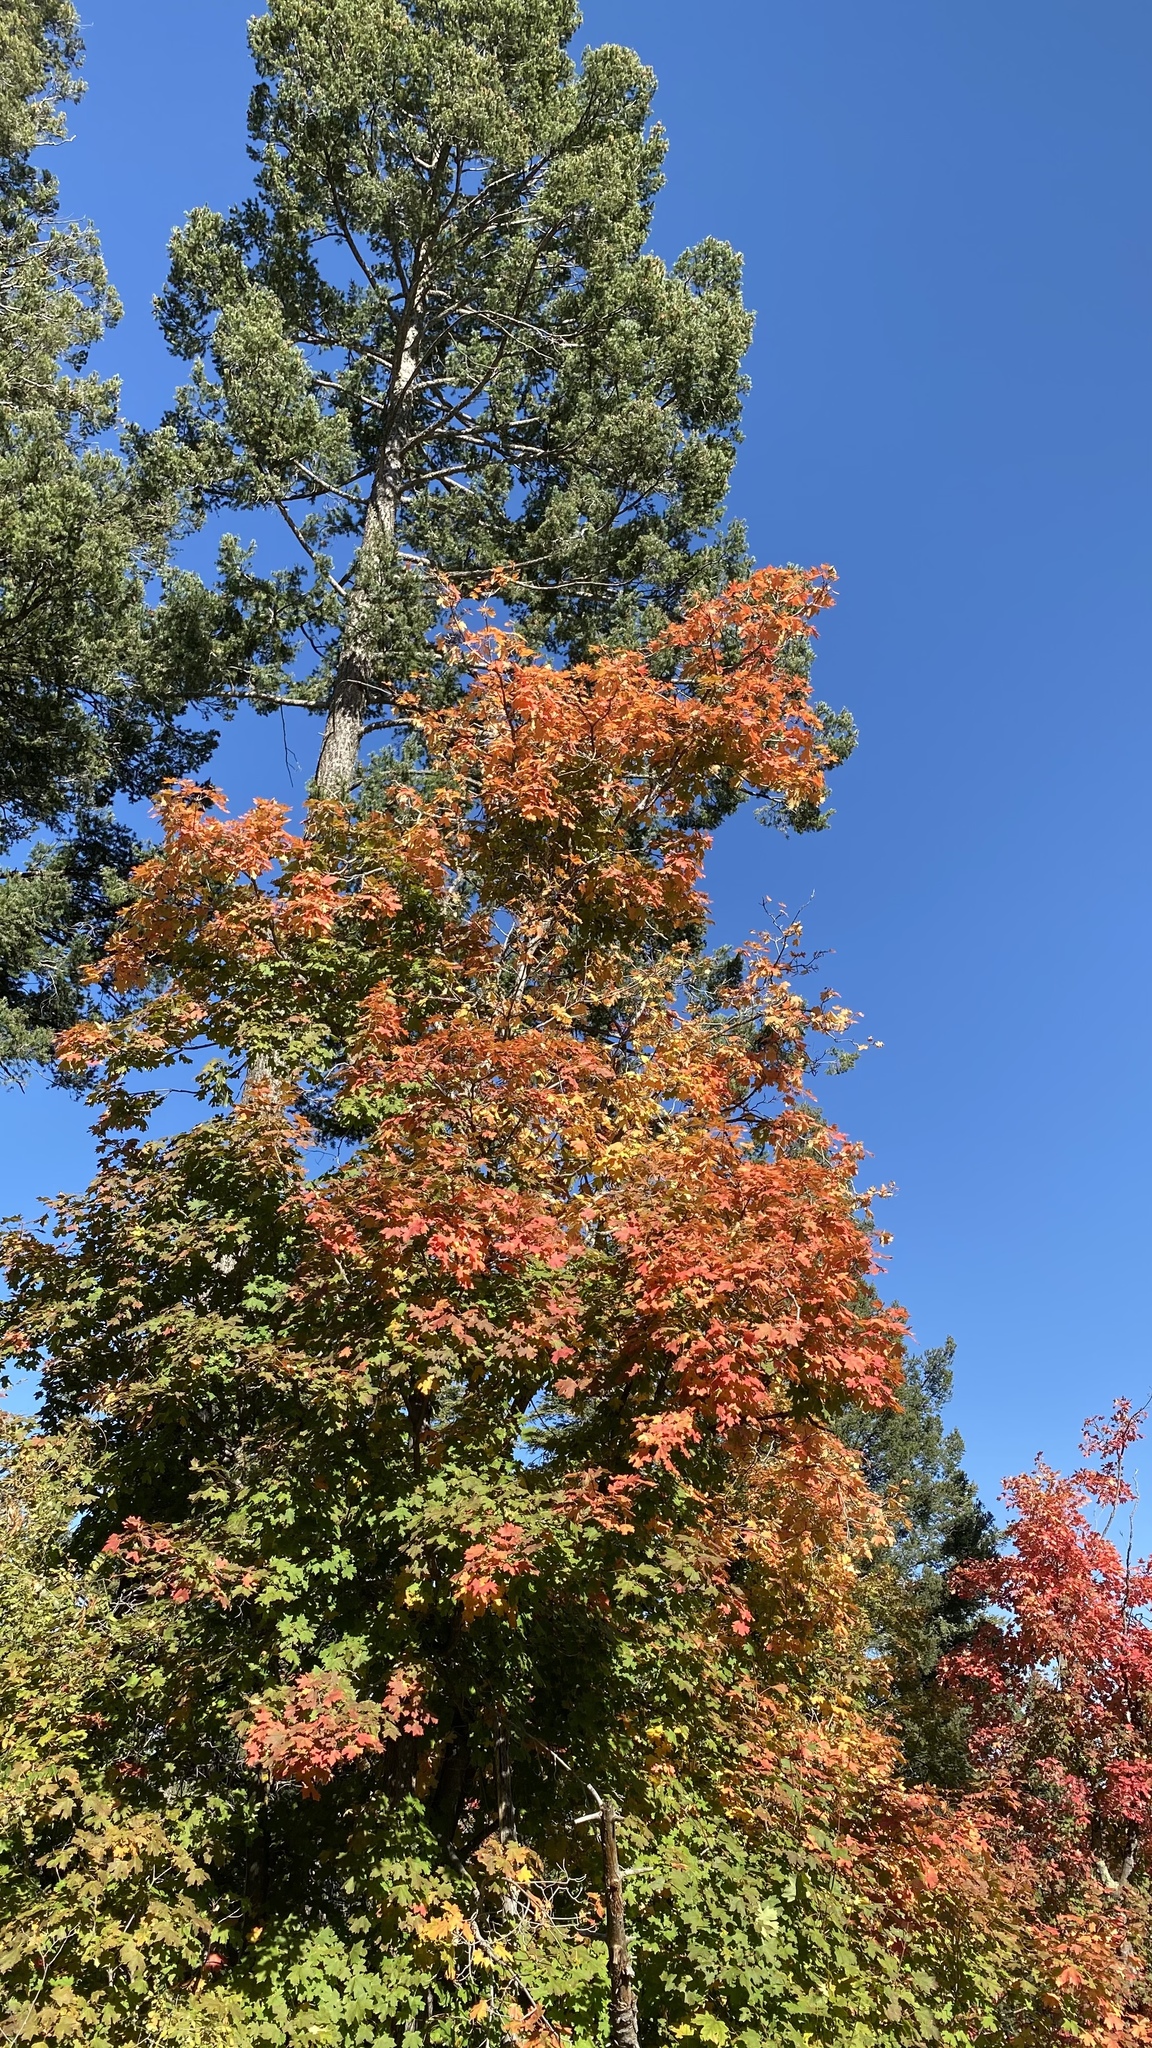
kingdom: Plantae
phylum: Tracheophyta
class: Magnoliopsida
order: Sapindales
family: Sapindaceae
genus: Acer
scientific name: Acer grandidentatum
